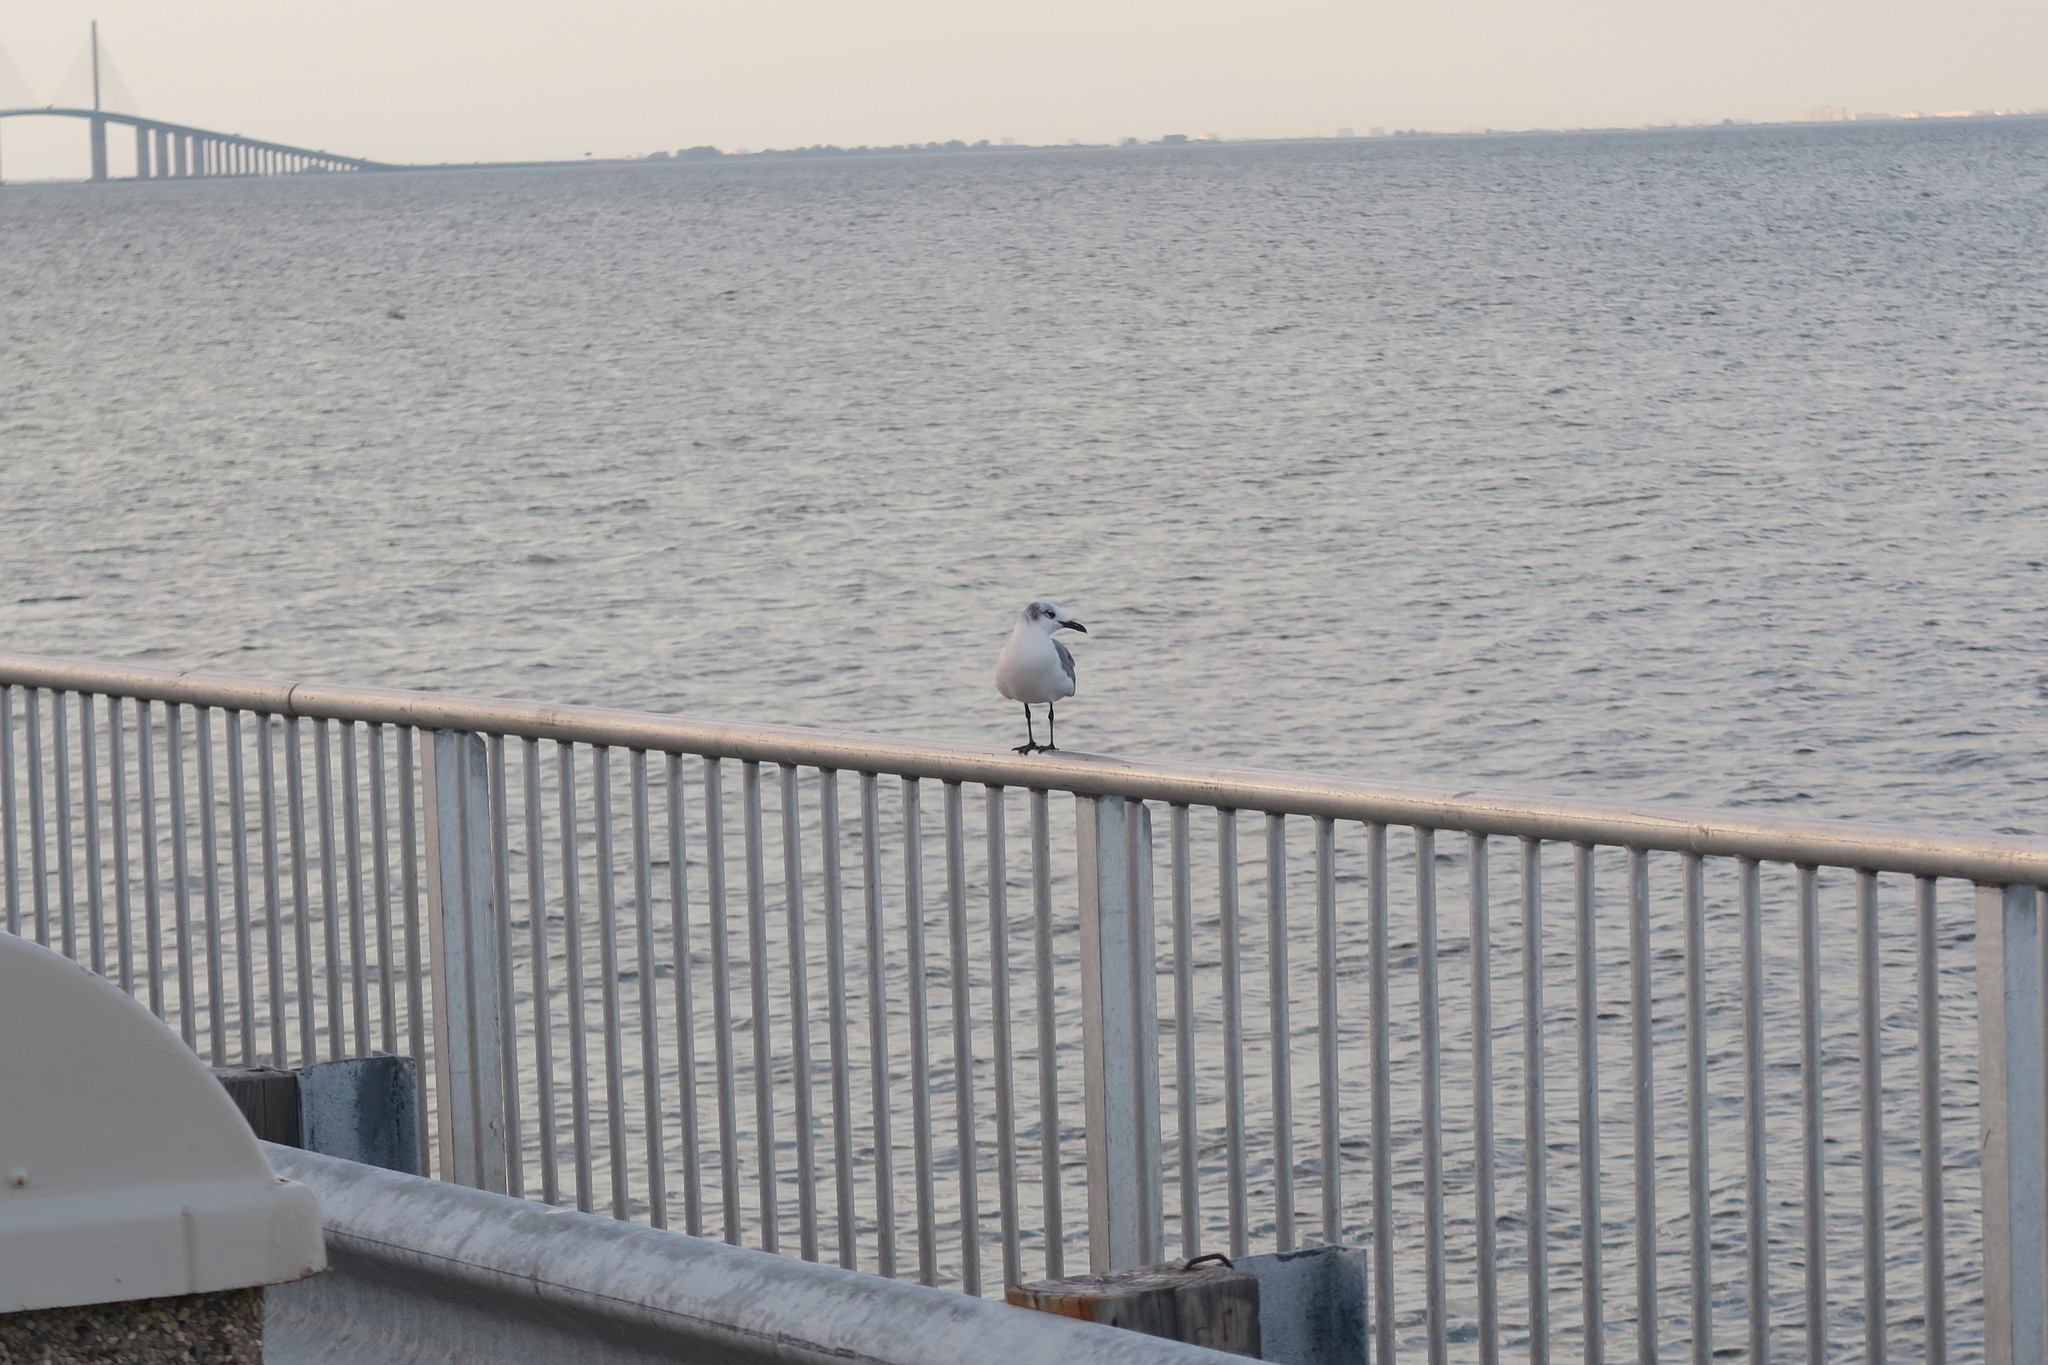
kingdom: Animalia
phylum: Chordata
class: Aves
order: Charadriiformes
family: Laridae
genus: Leucophaeus
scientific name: Leucophaeus atricilla
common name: Laughing gull
